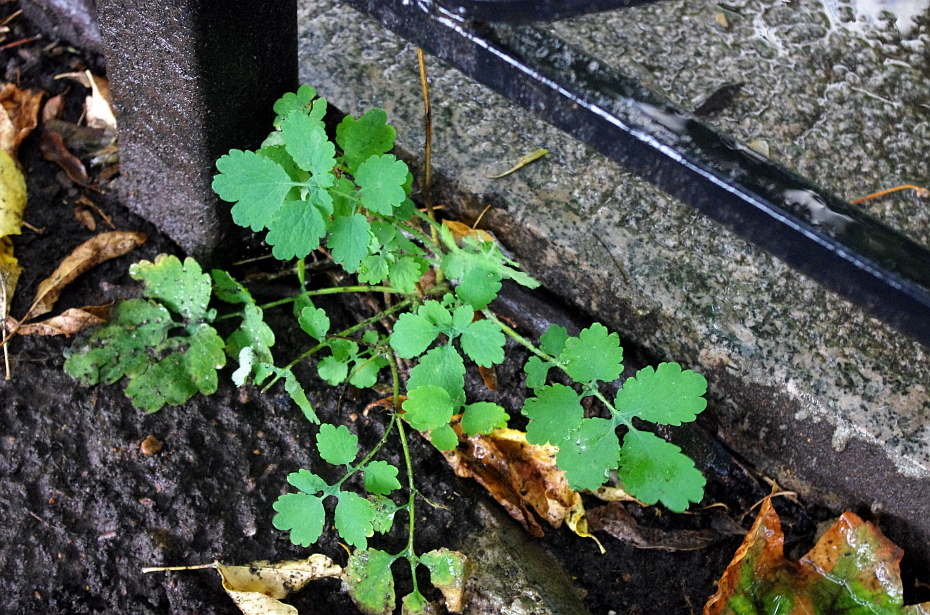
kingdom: Plantae
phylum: Tracheophyta
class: Magnoliopsida
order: Ranunculales
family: Papaveraceae
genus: Chelidonium
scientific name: Chelidonium majus
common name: Greater celandine
